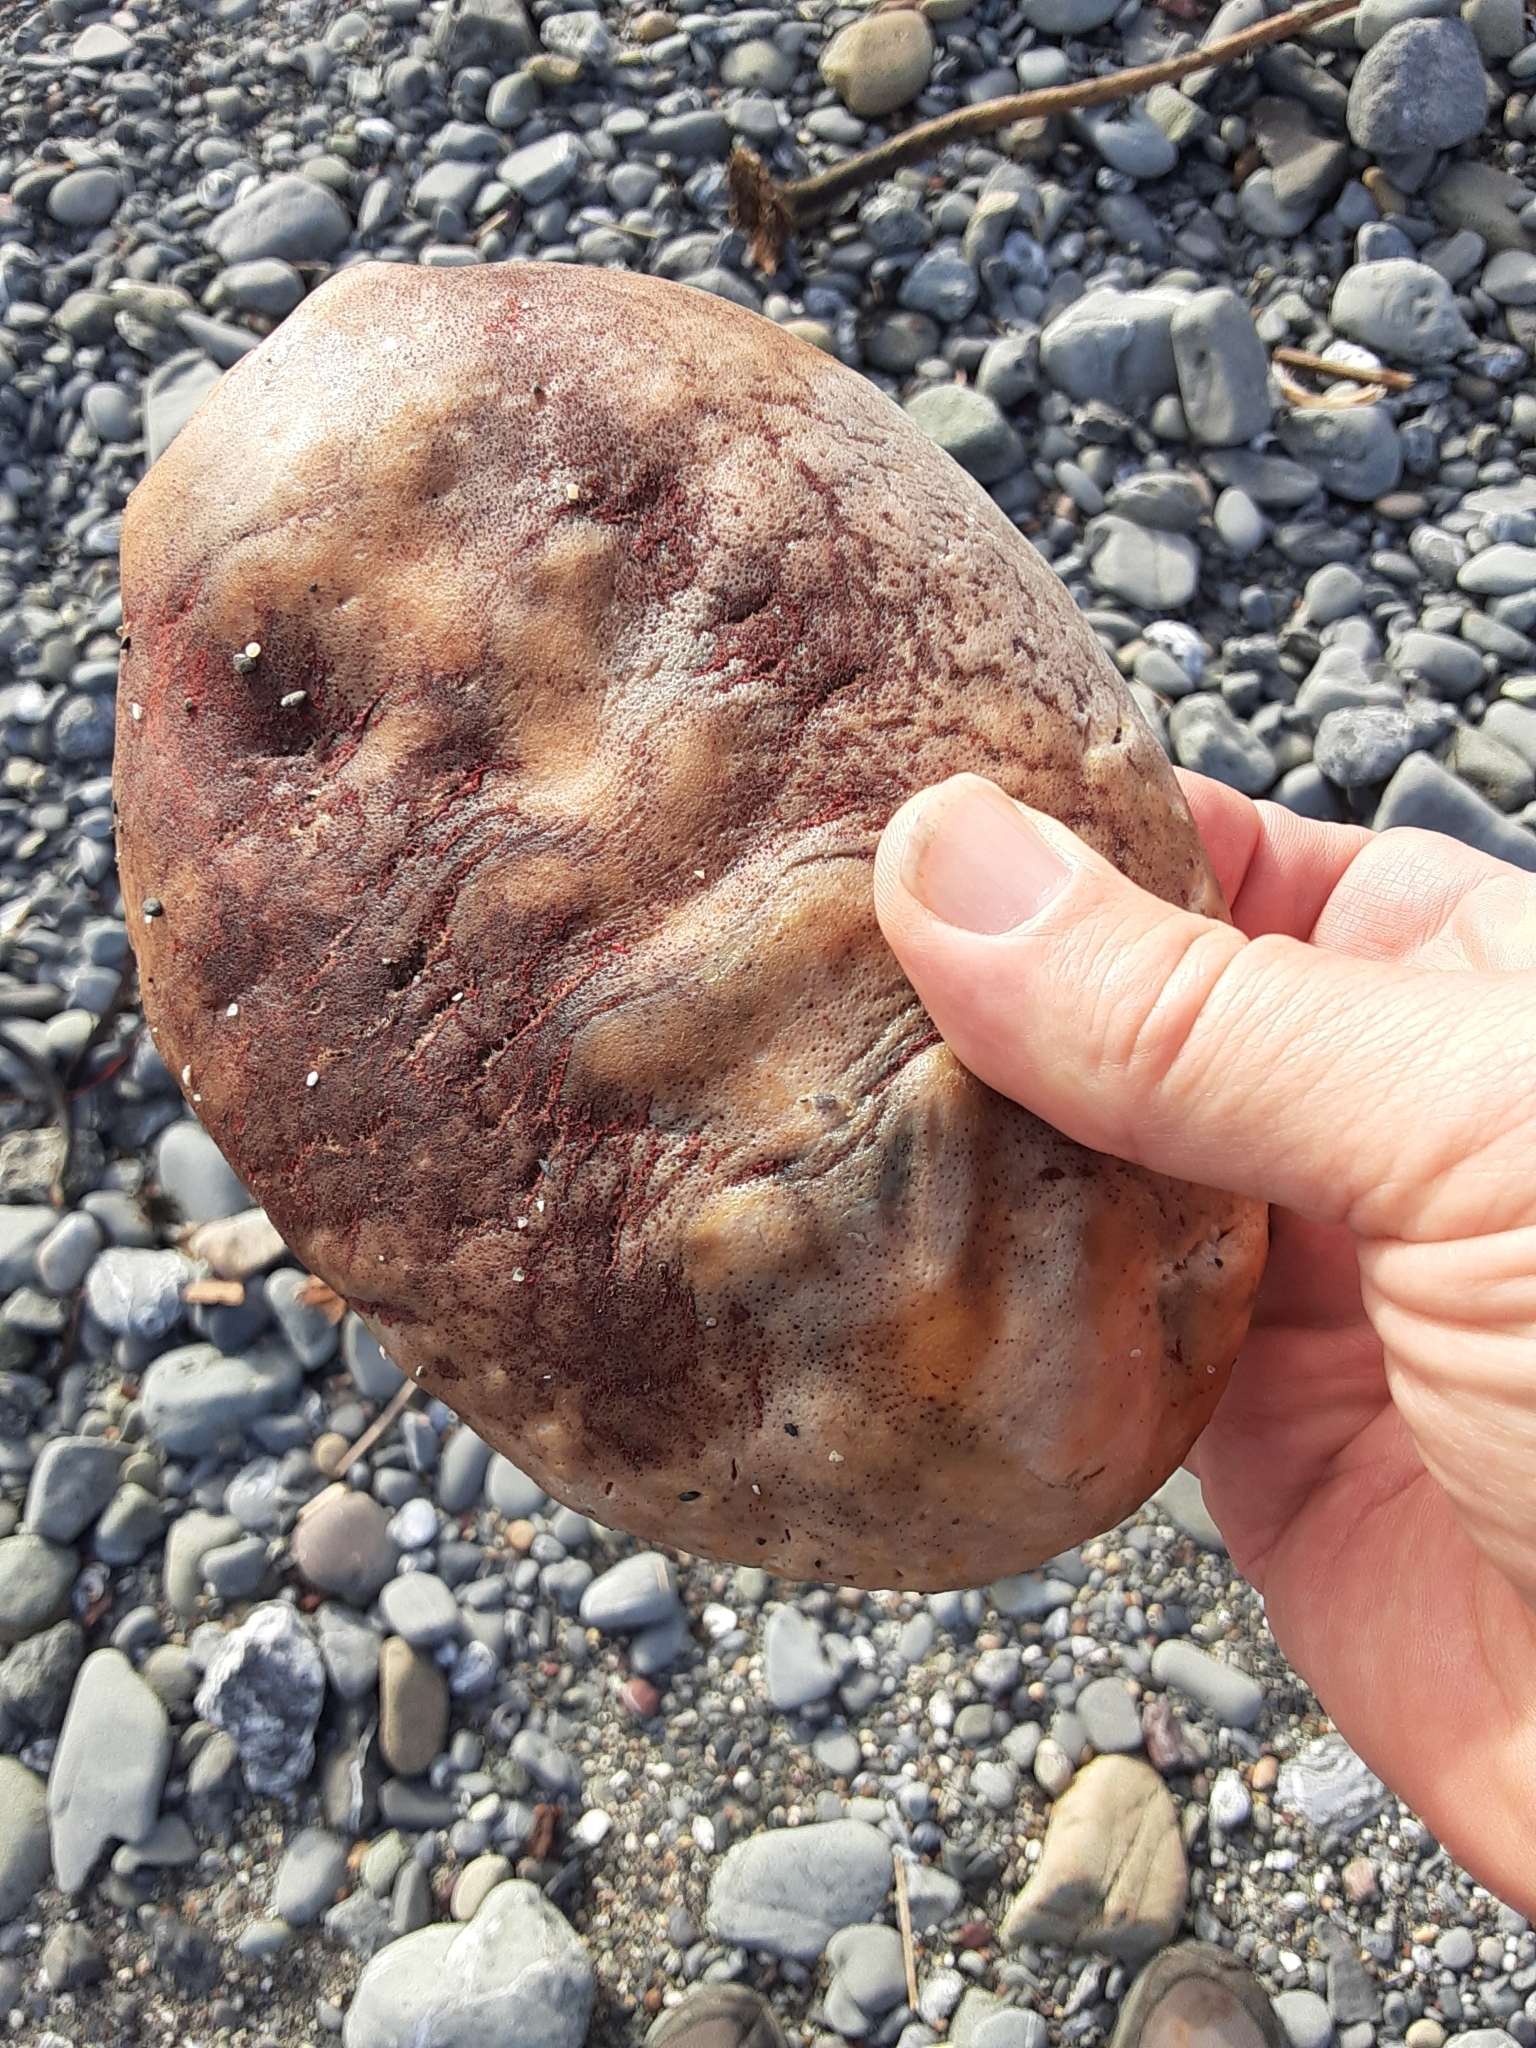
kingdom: Animalia
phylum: Mollusca
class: Polyplacophora
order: Chitonida
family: Acanthochitonidae
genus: Cryptochiton
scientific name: Cryptochiton stelleri
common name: Giant pacific chiton
